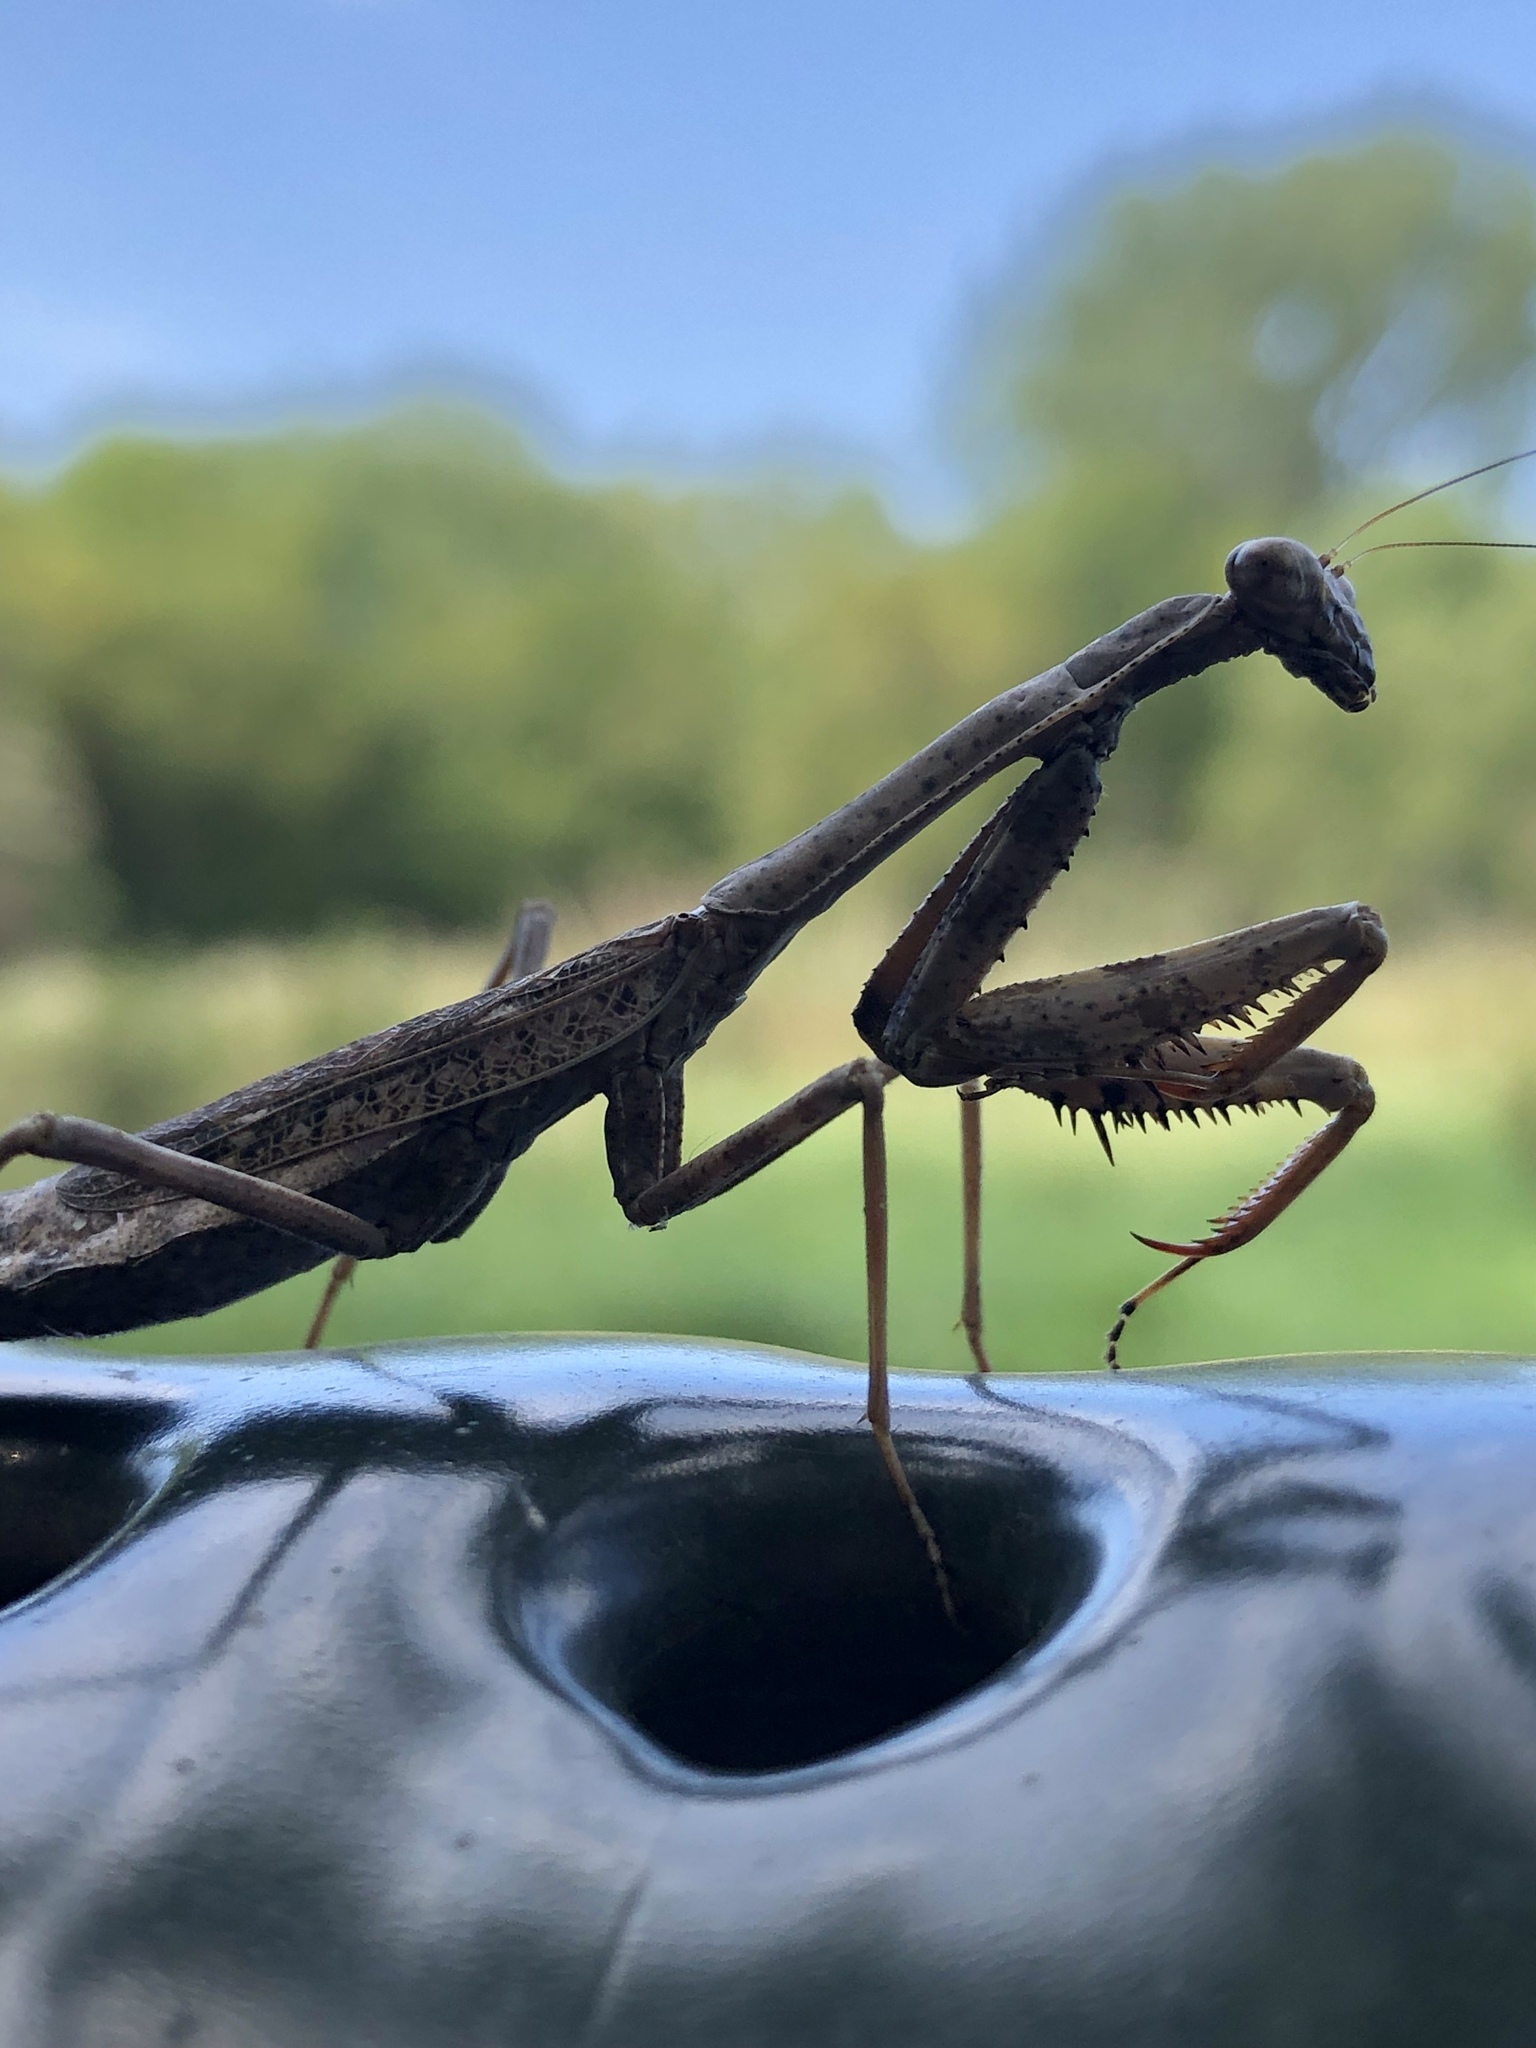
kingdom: Animalia
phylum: Arthropoda
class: Insecta
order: Mantodea
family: Mantidae
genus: Stagmomantis
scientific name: Stagmomantis carolina
